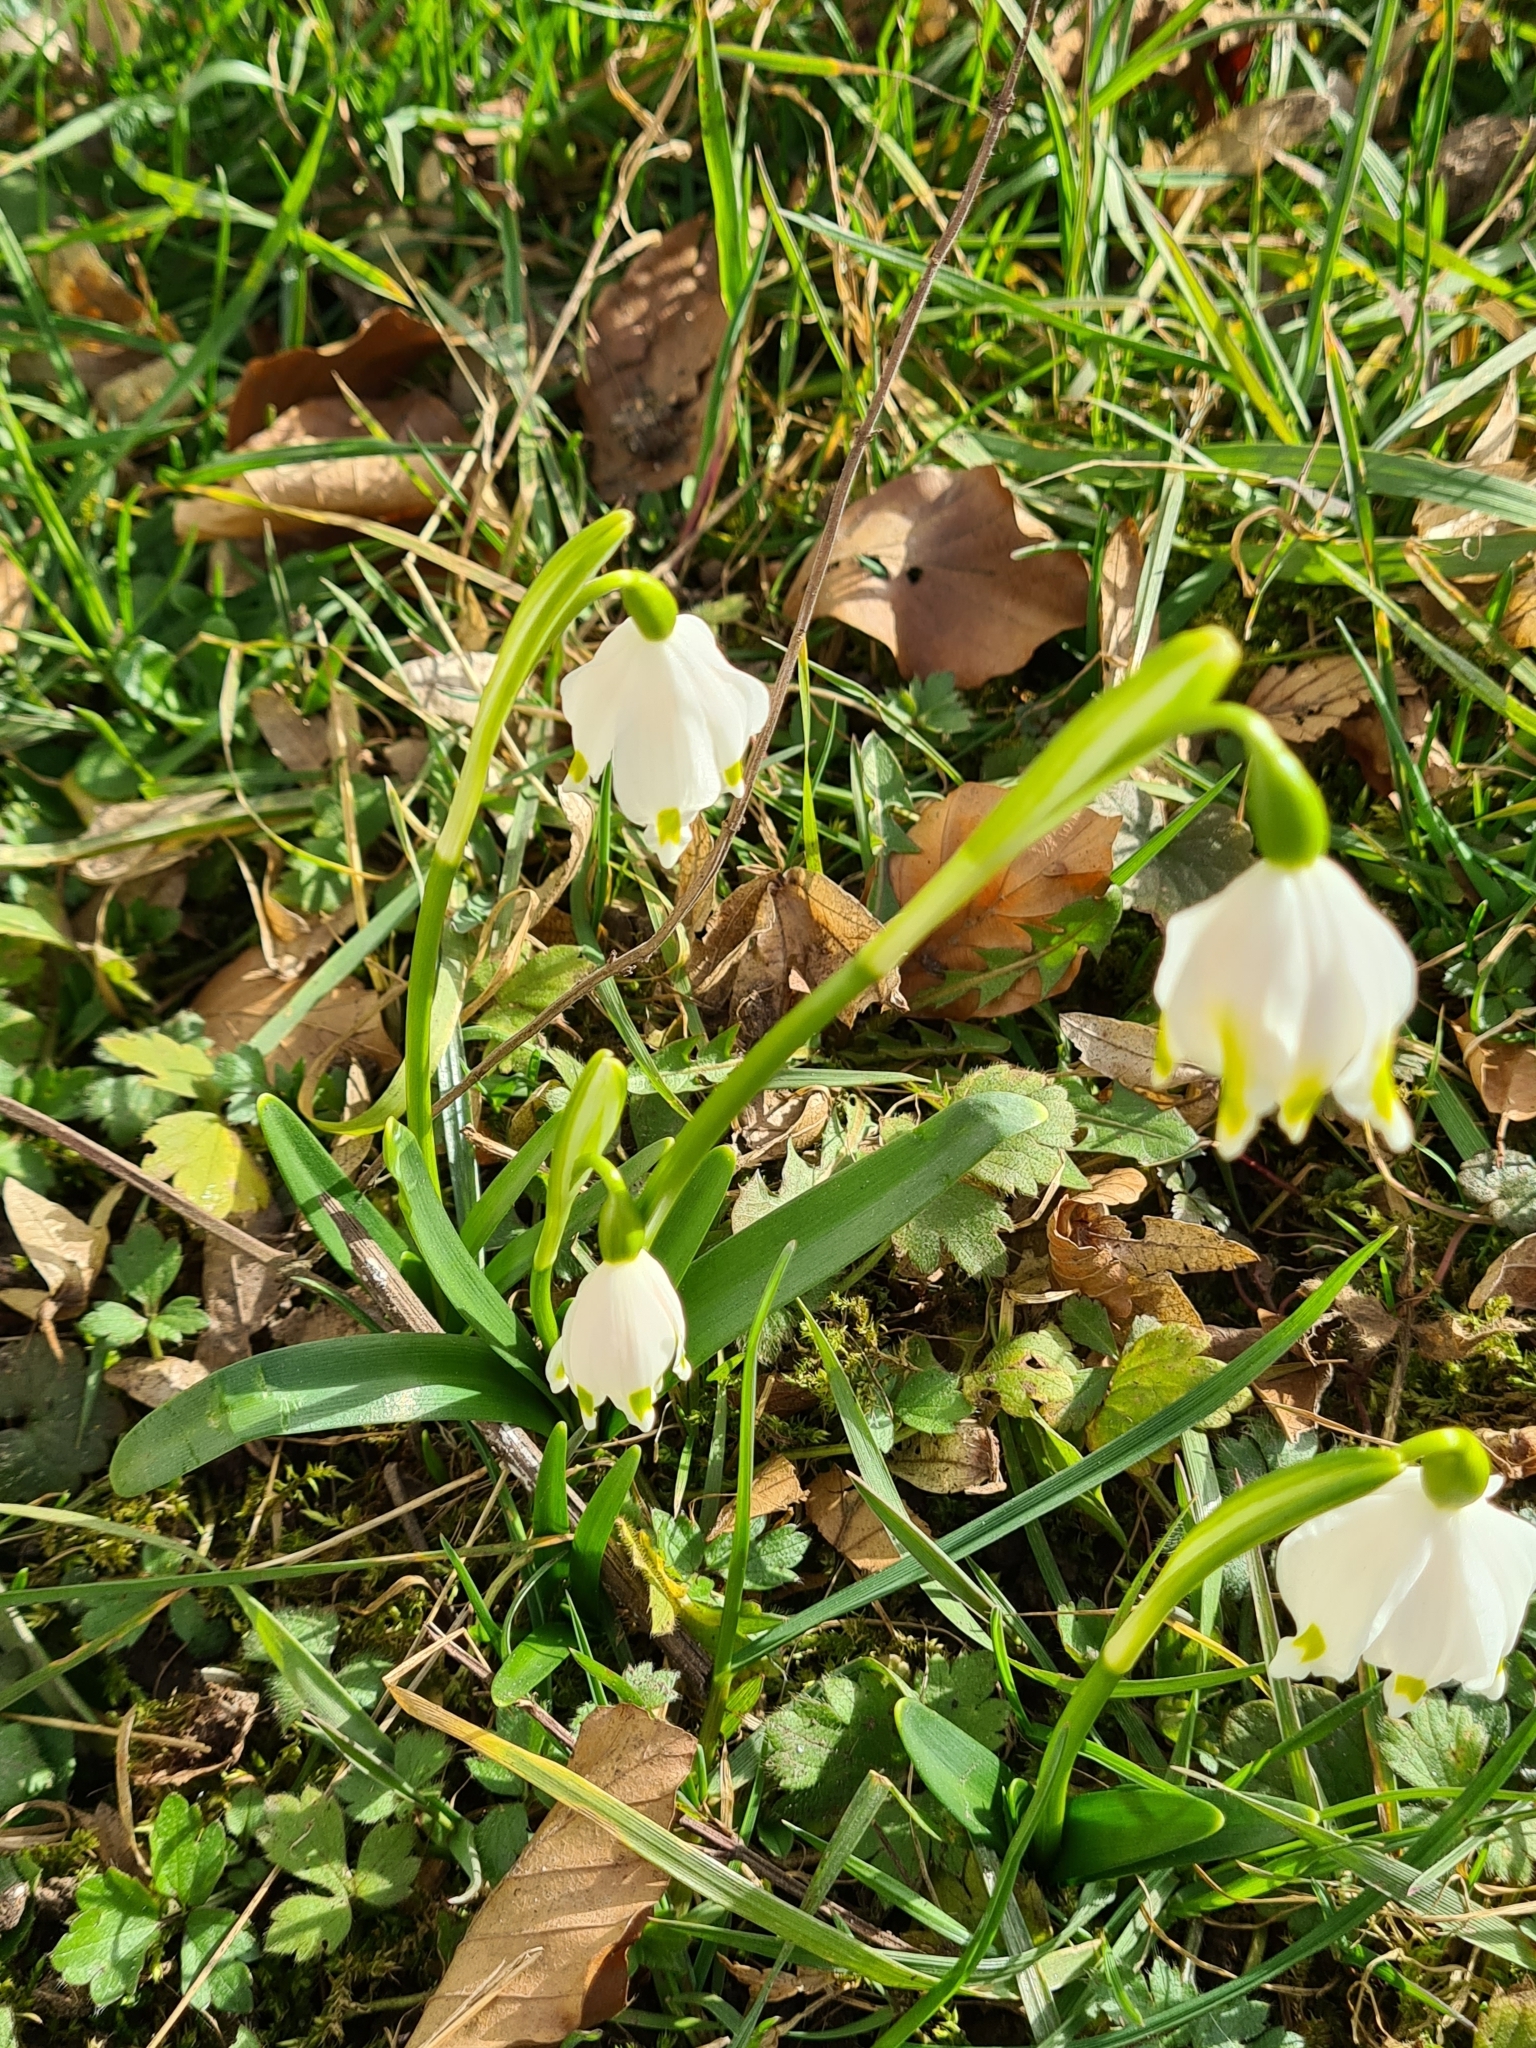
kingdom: Plantae
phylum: Tracheophyta
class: Liliopsida
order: Asparagales
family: Amaryllidaceae
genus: Leucojum
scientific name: Leucojum vernum
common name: Spring snowflake
